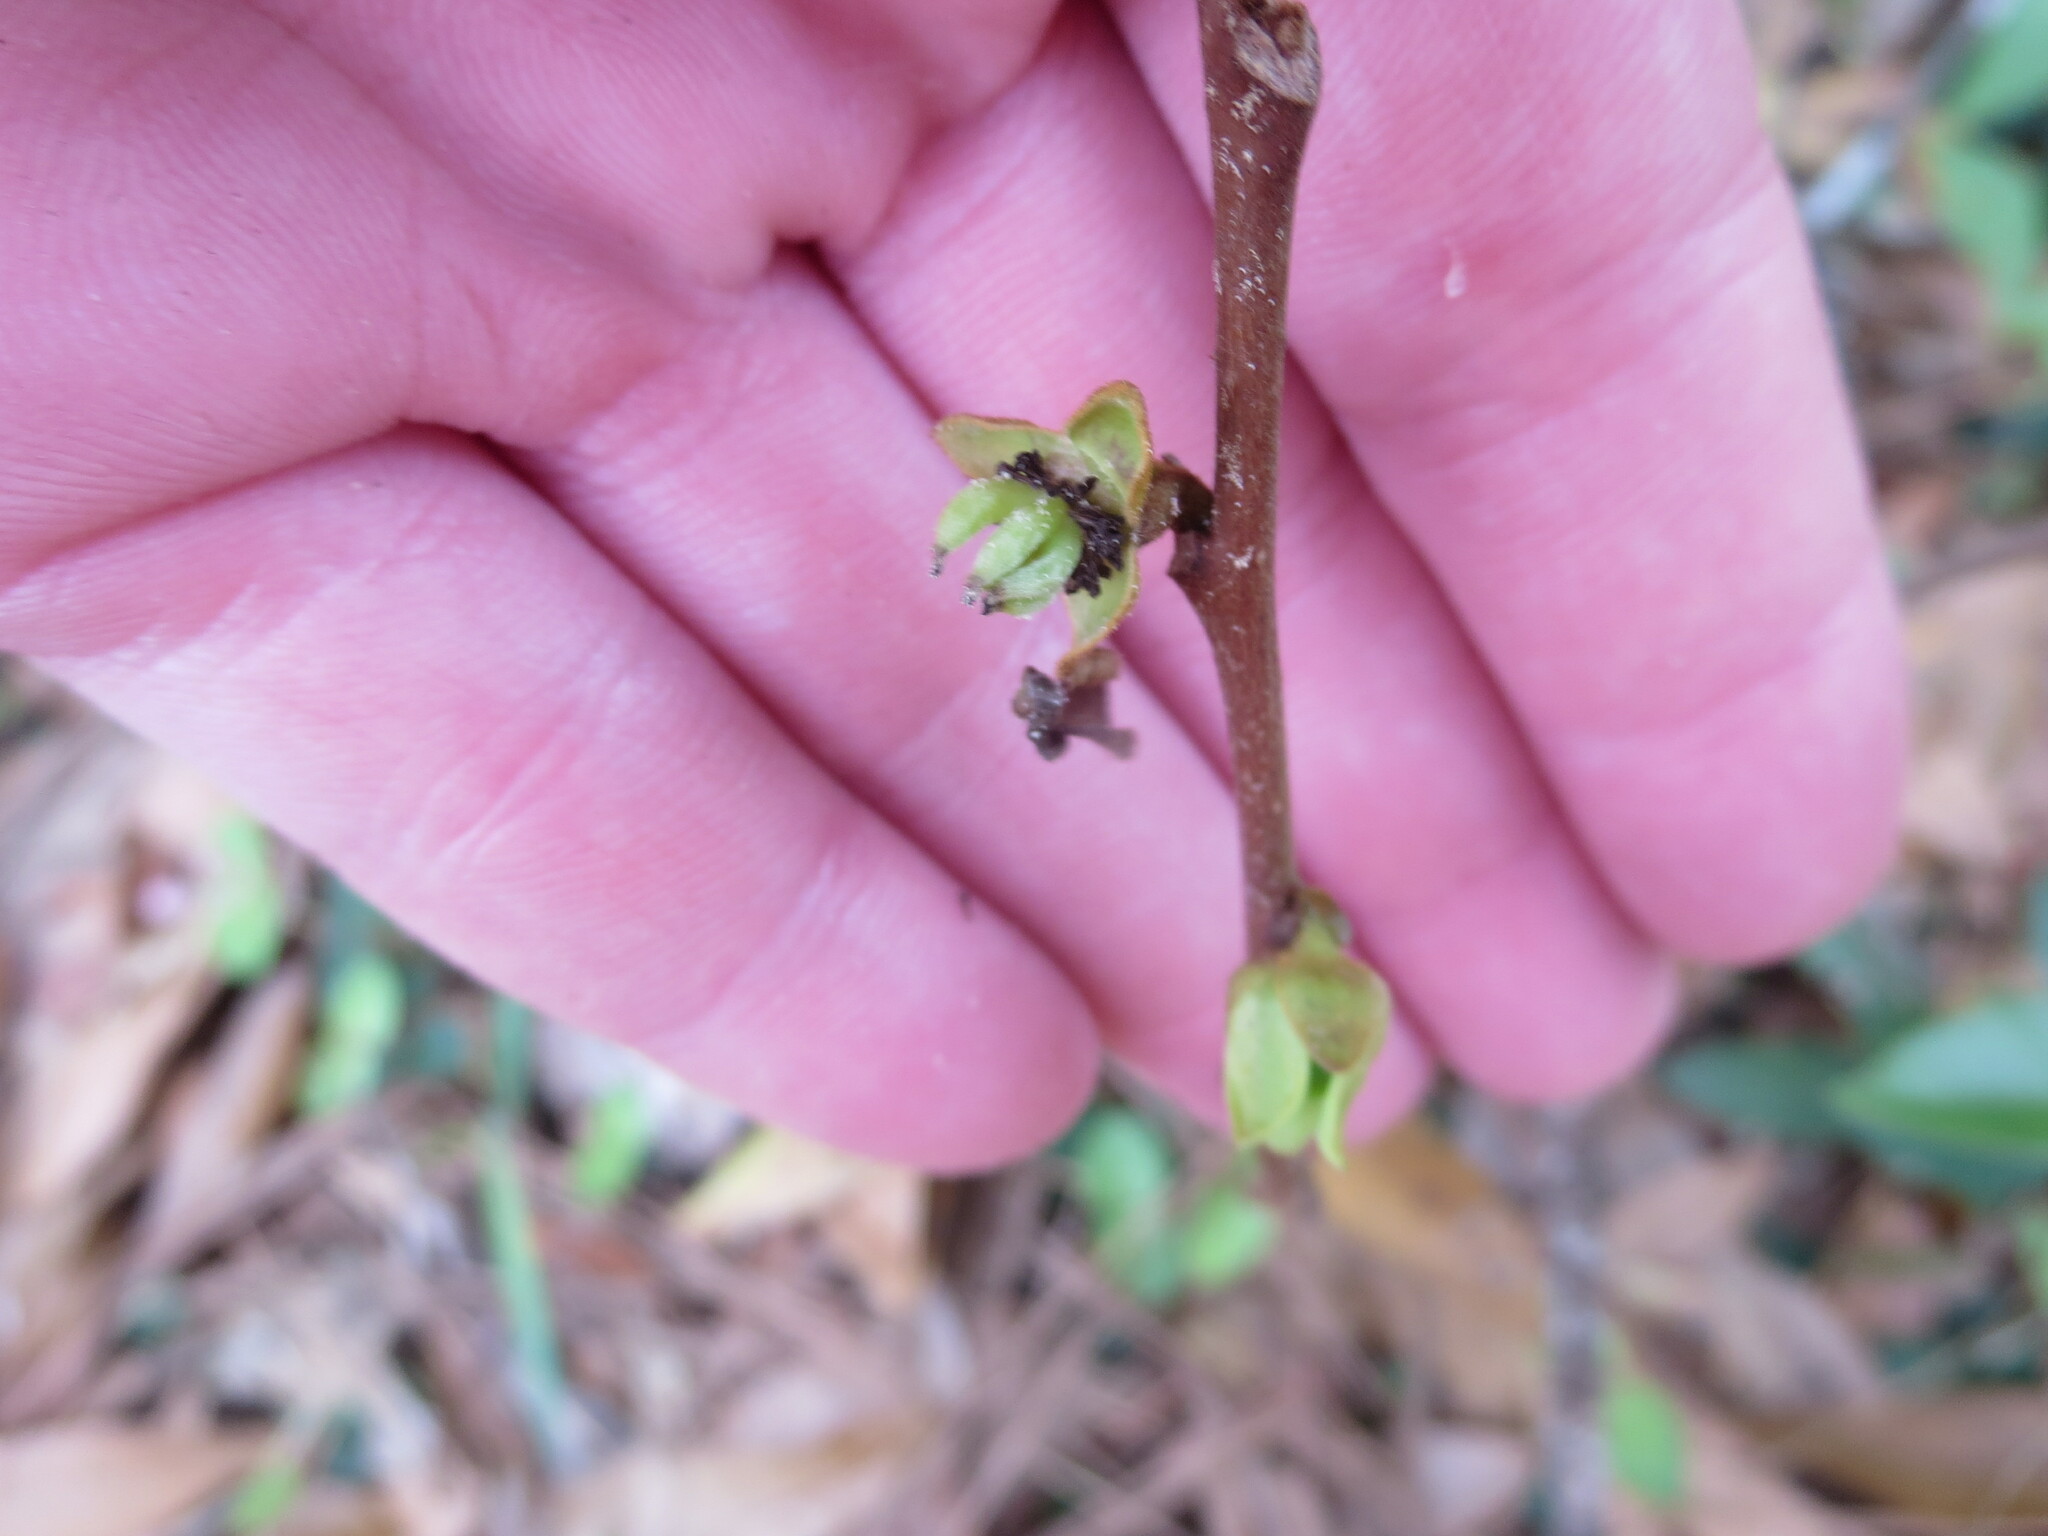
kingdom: Plantae
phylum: Tracheophyta
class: Magnoliopsida
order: Magnoliales
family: Annonaceae
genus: Asimina
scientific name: Asimina parviflora
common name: Dwarf pawpaw
